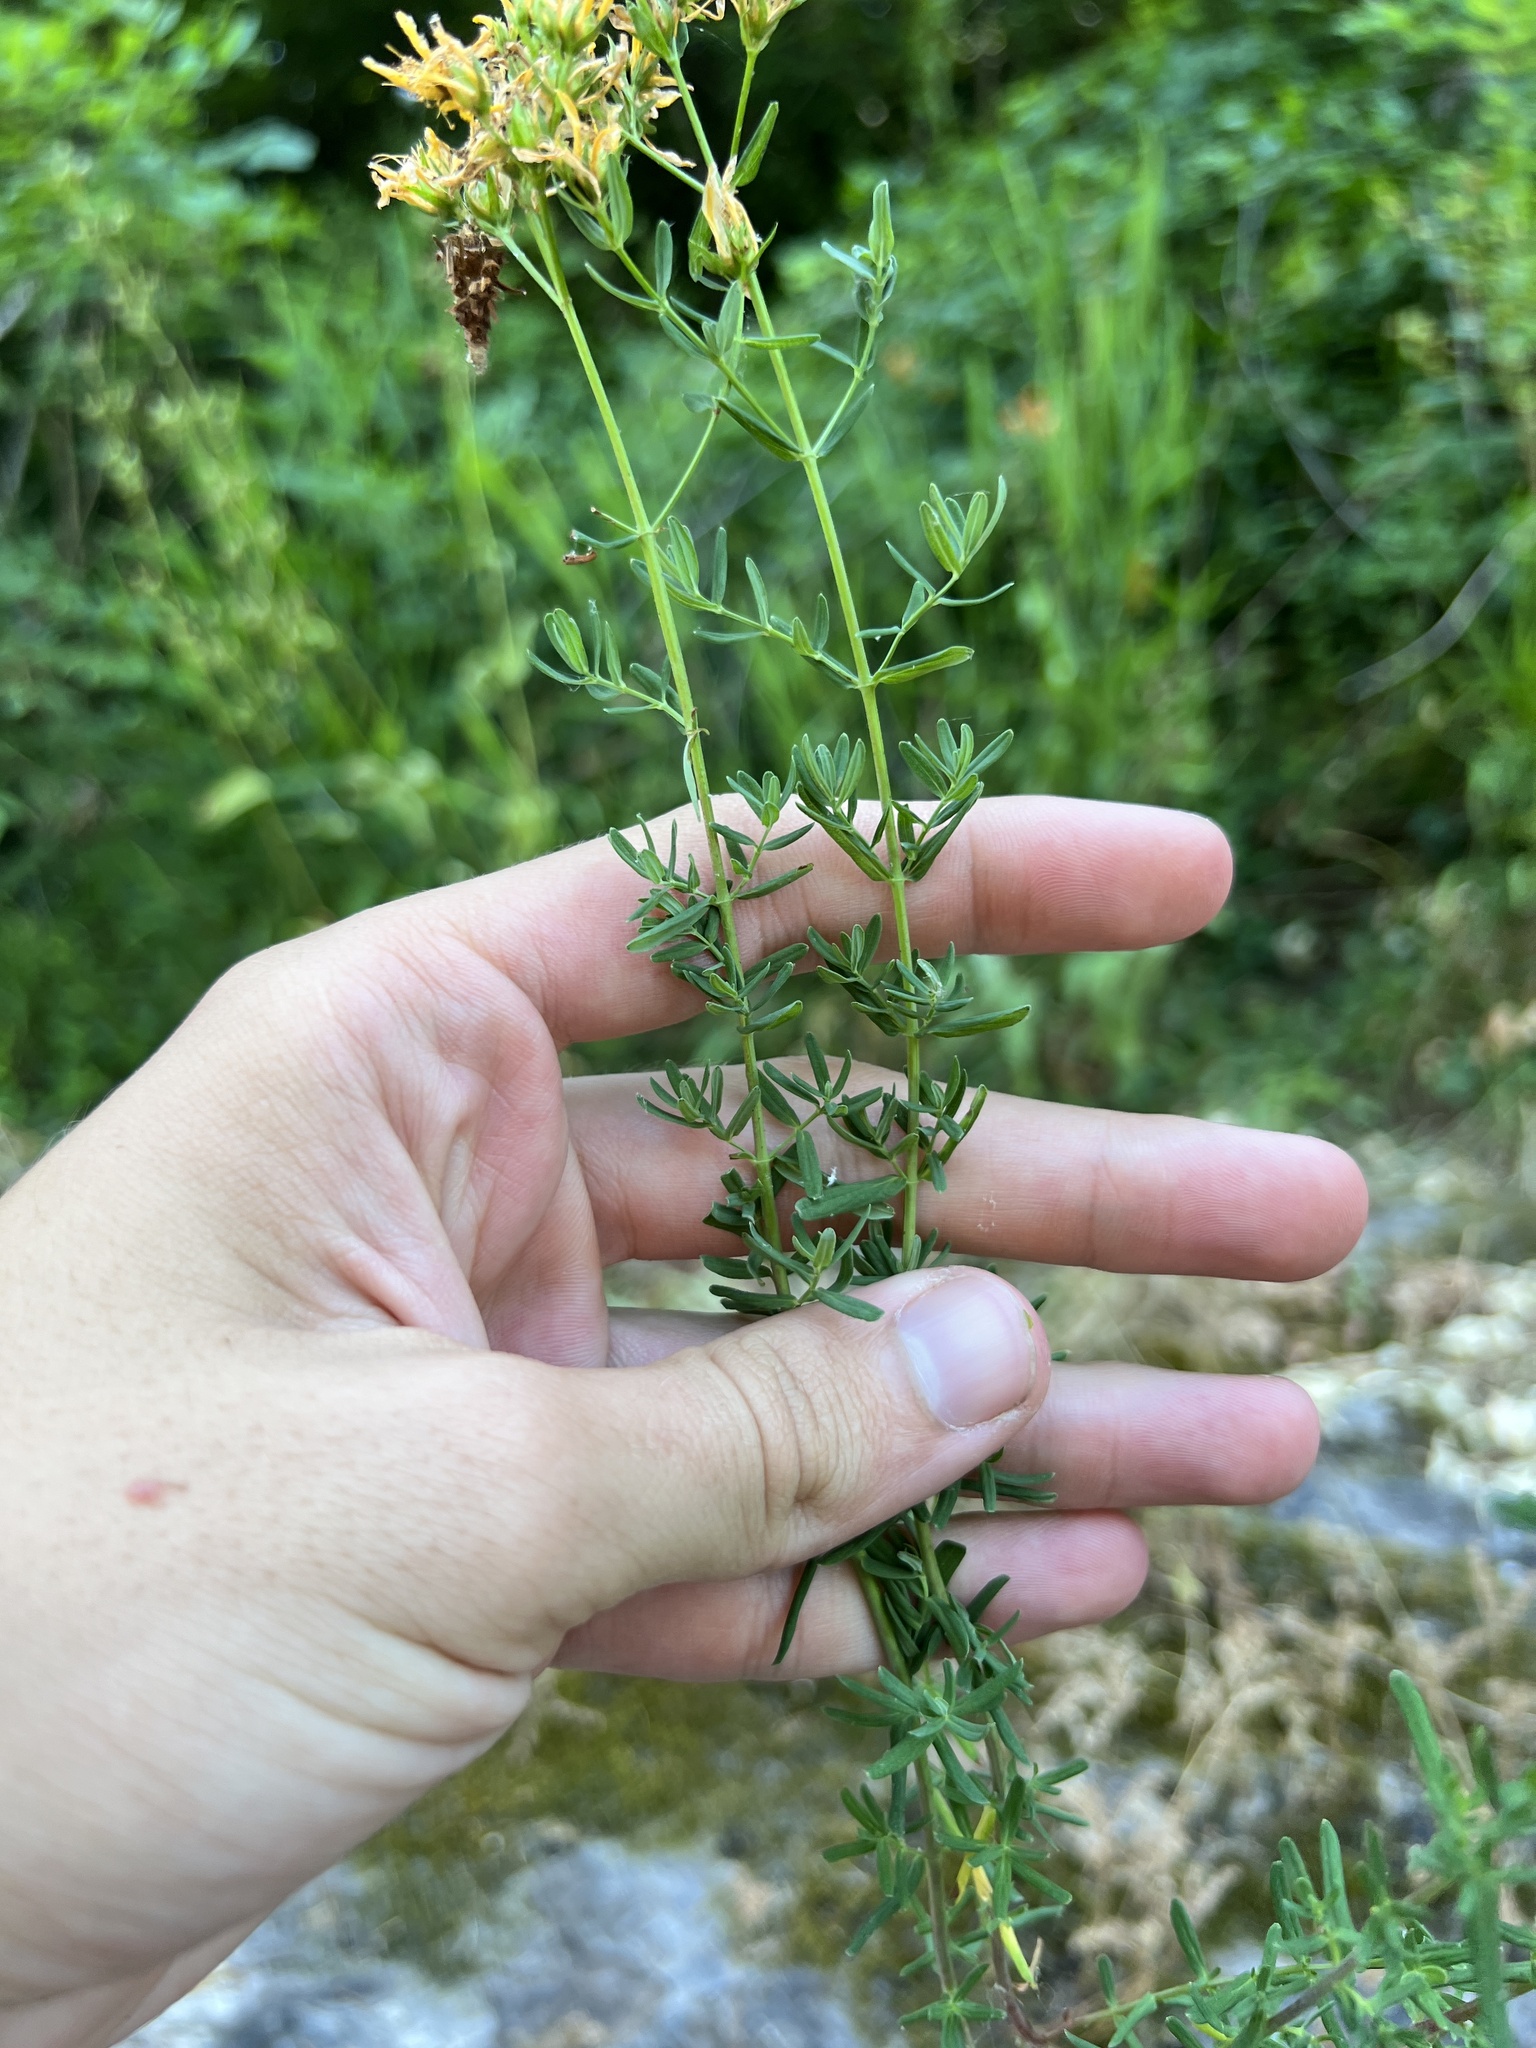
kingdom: Plantae
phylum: Tracheophyta
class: Magnoliopsida
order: Malpighiales
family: Hypericaceae
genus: Hypericum
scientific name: Hypericum perforatum
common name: Common st. johnswort
